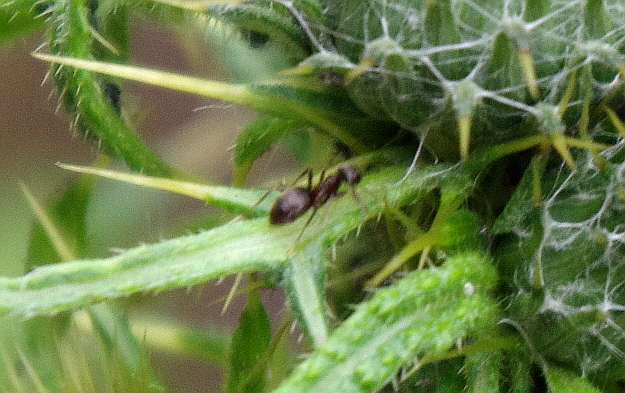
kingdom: Animalia
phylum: Arthropoda
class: Insecta
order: Hymenoptera
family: Formicidae
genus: Lasius
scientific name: Lasius
